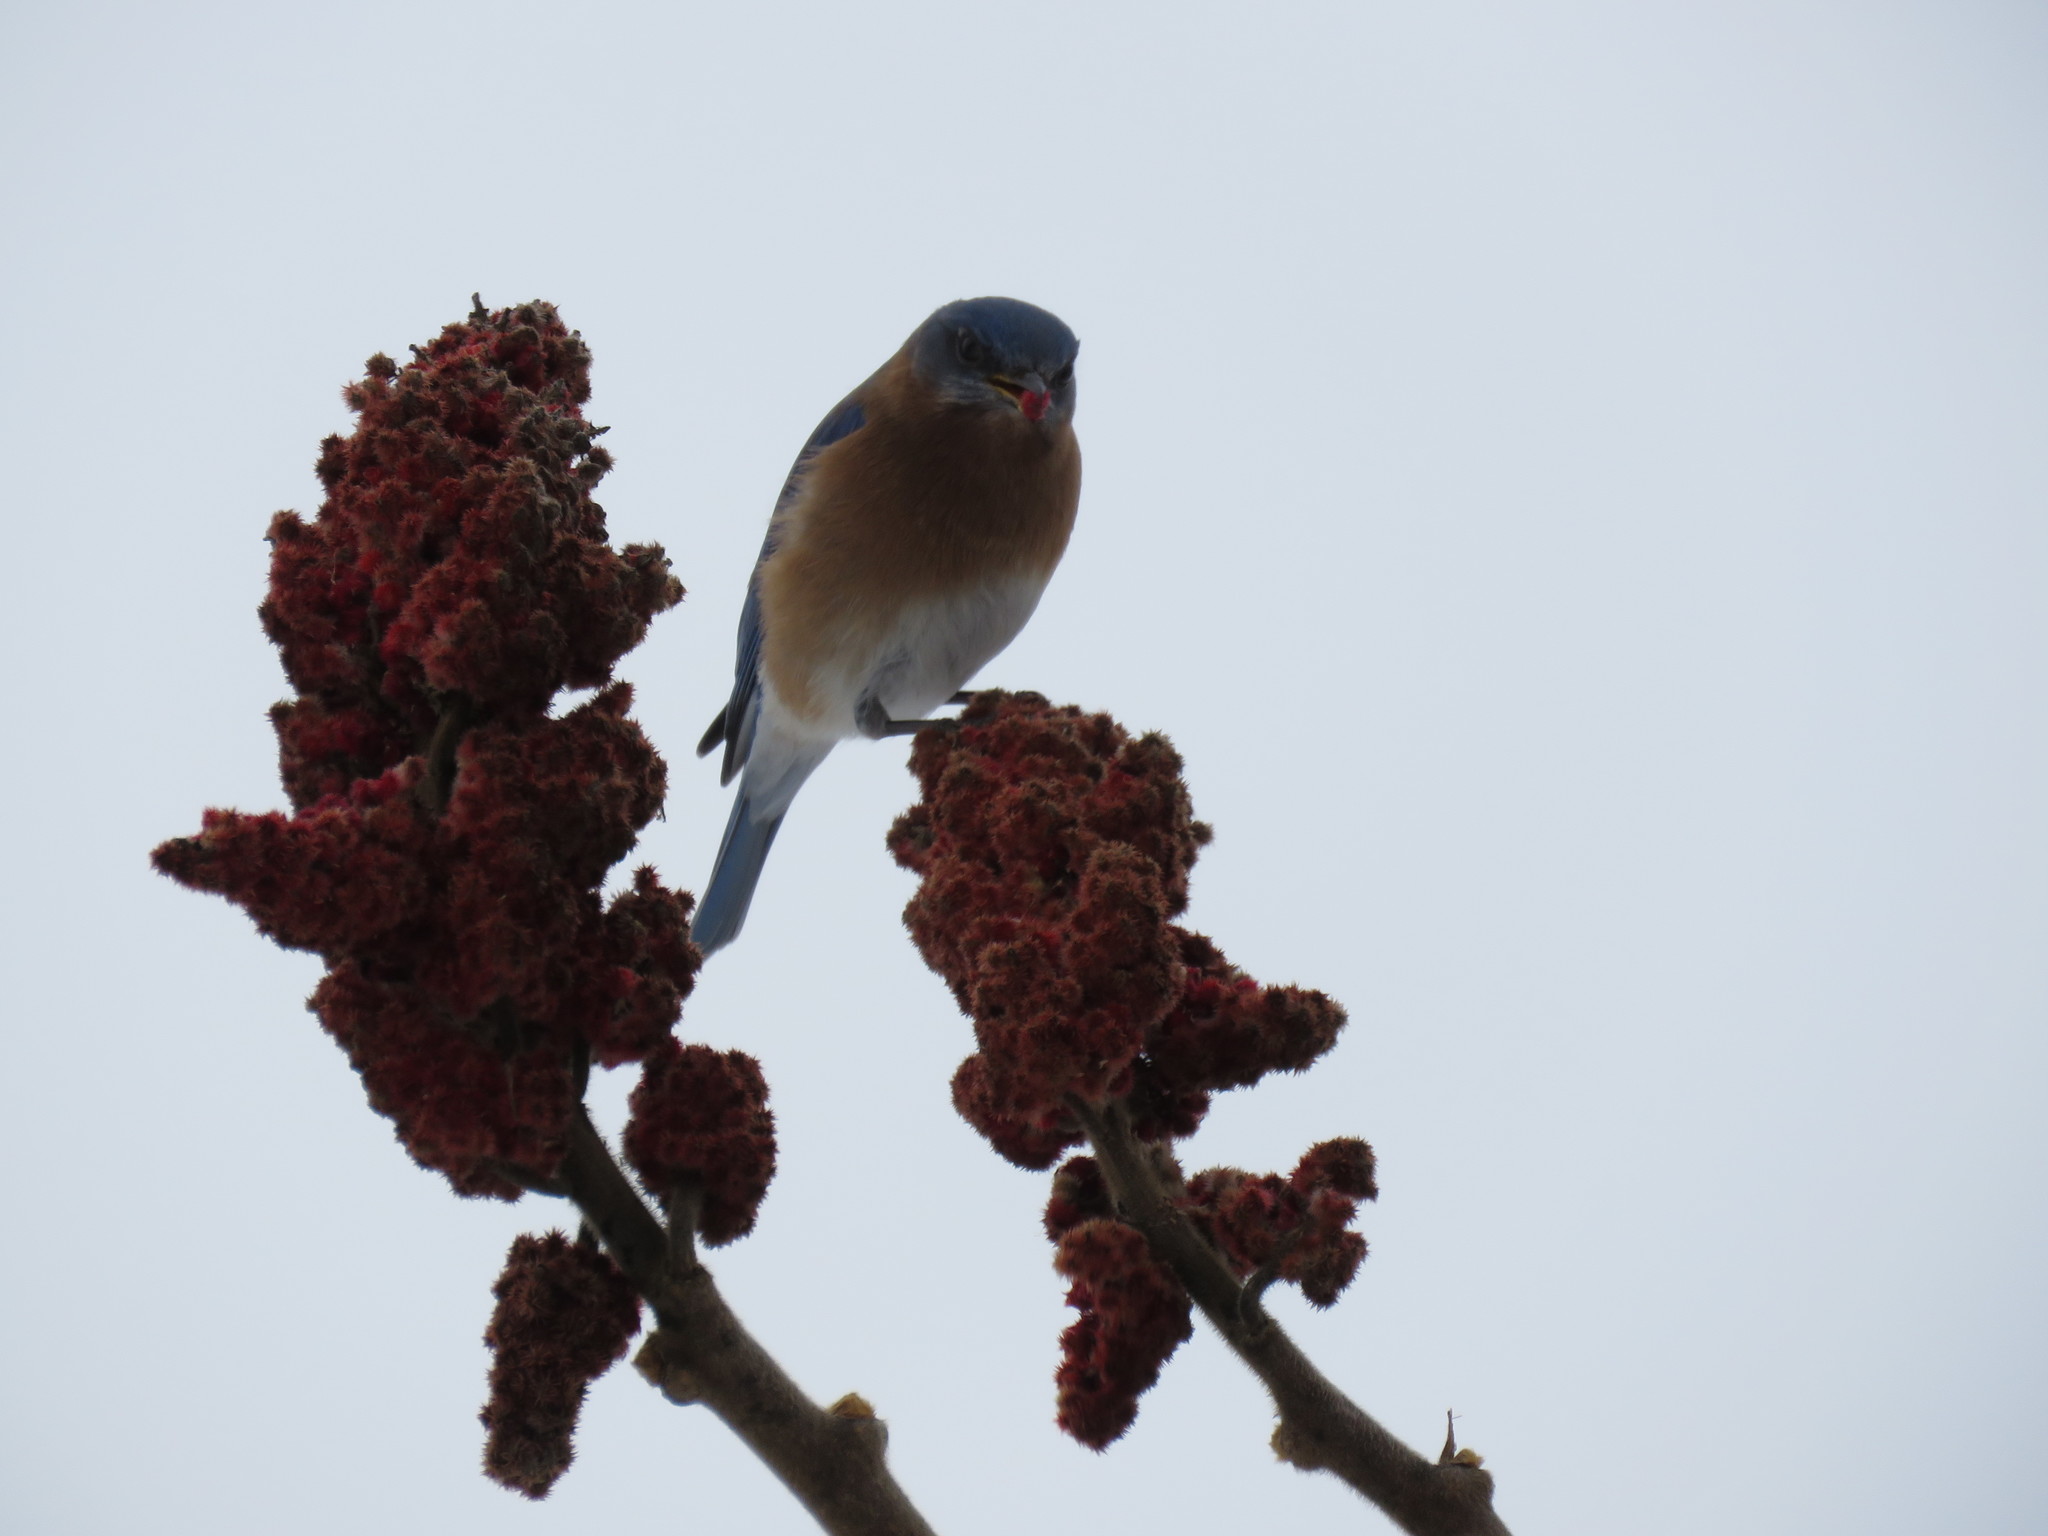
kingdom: Animalia
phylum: Chordata
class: Aves
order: Passeriformes
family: Turdidae
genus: Sialia
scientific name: Sialia sialis
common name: Eastern bluebird
